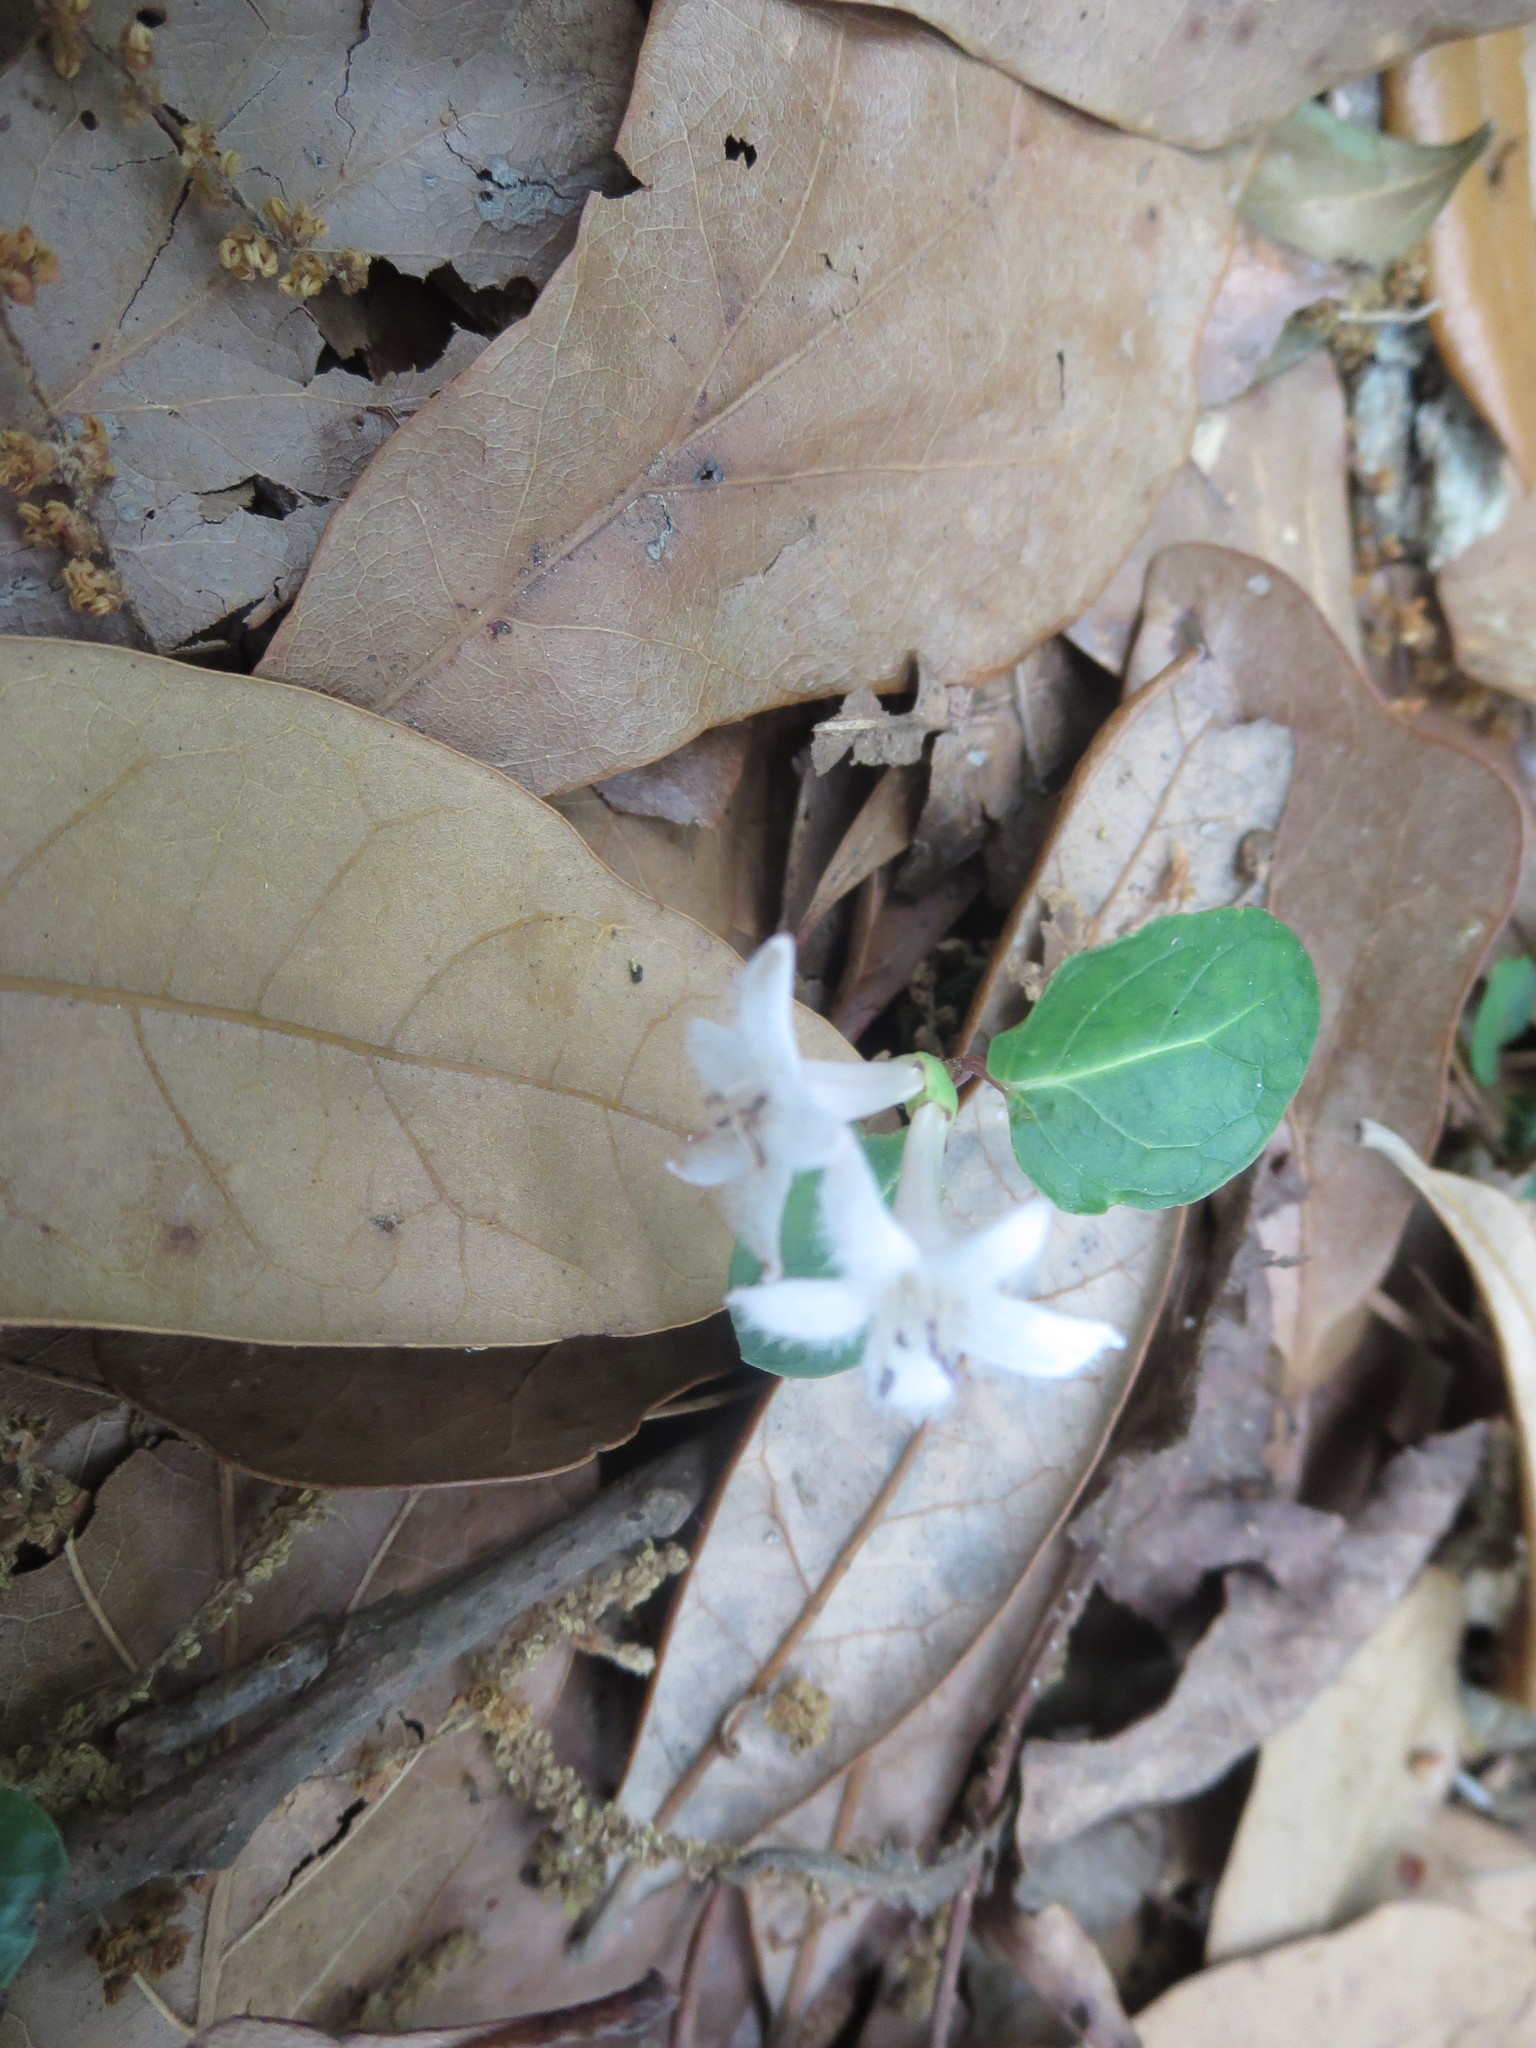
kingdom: Plantae
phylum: Tracheophyta
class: Magnoliopsida
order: Gentianales
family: Rubiaceae
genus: Mitchella
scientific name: Mitchella repens
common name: Partridge-berry
